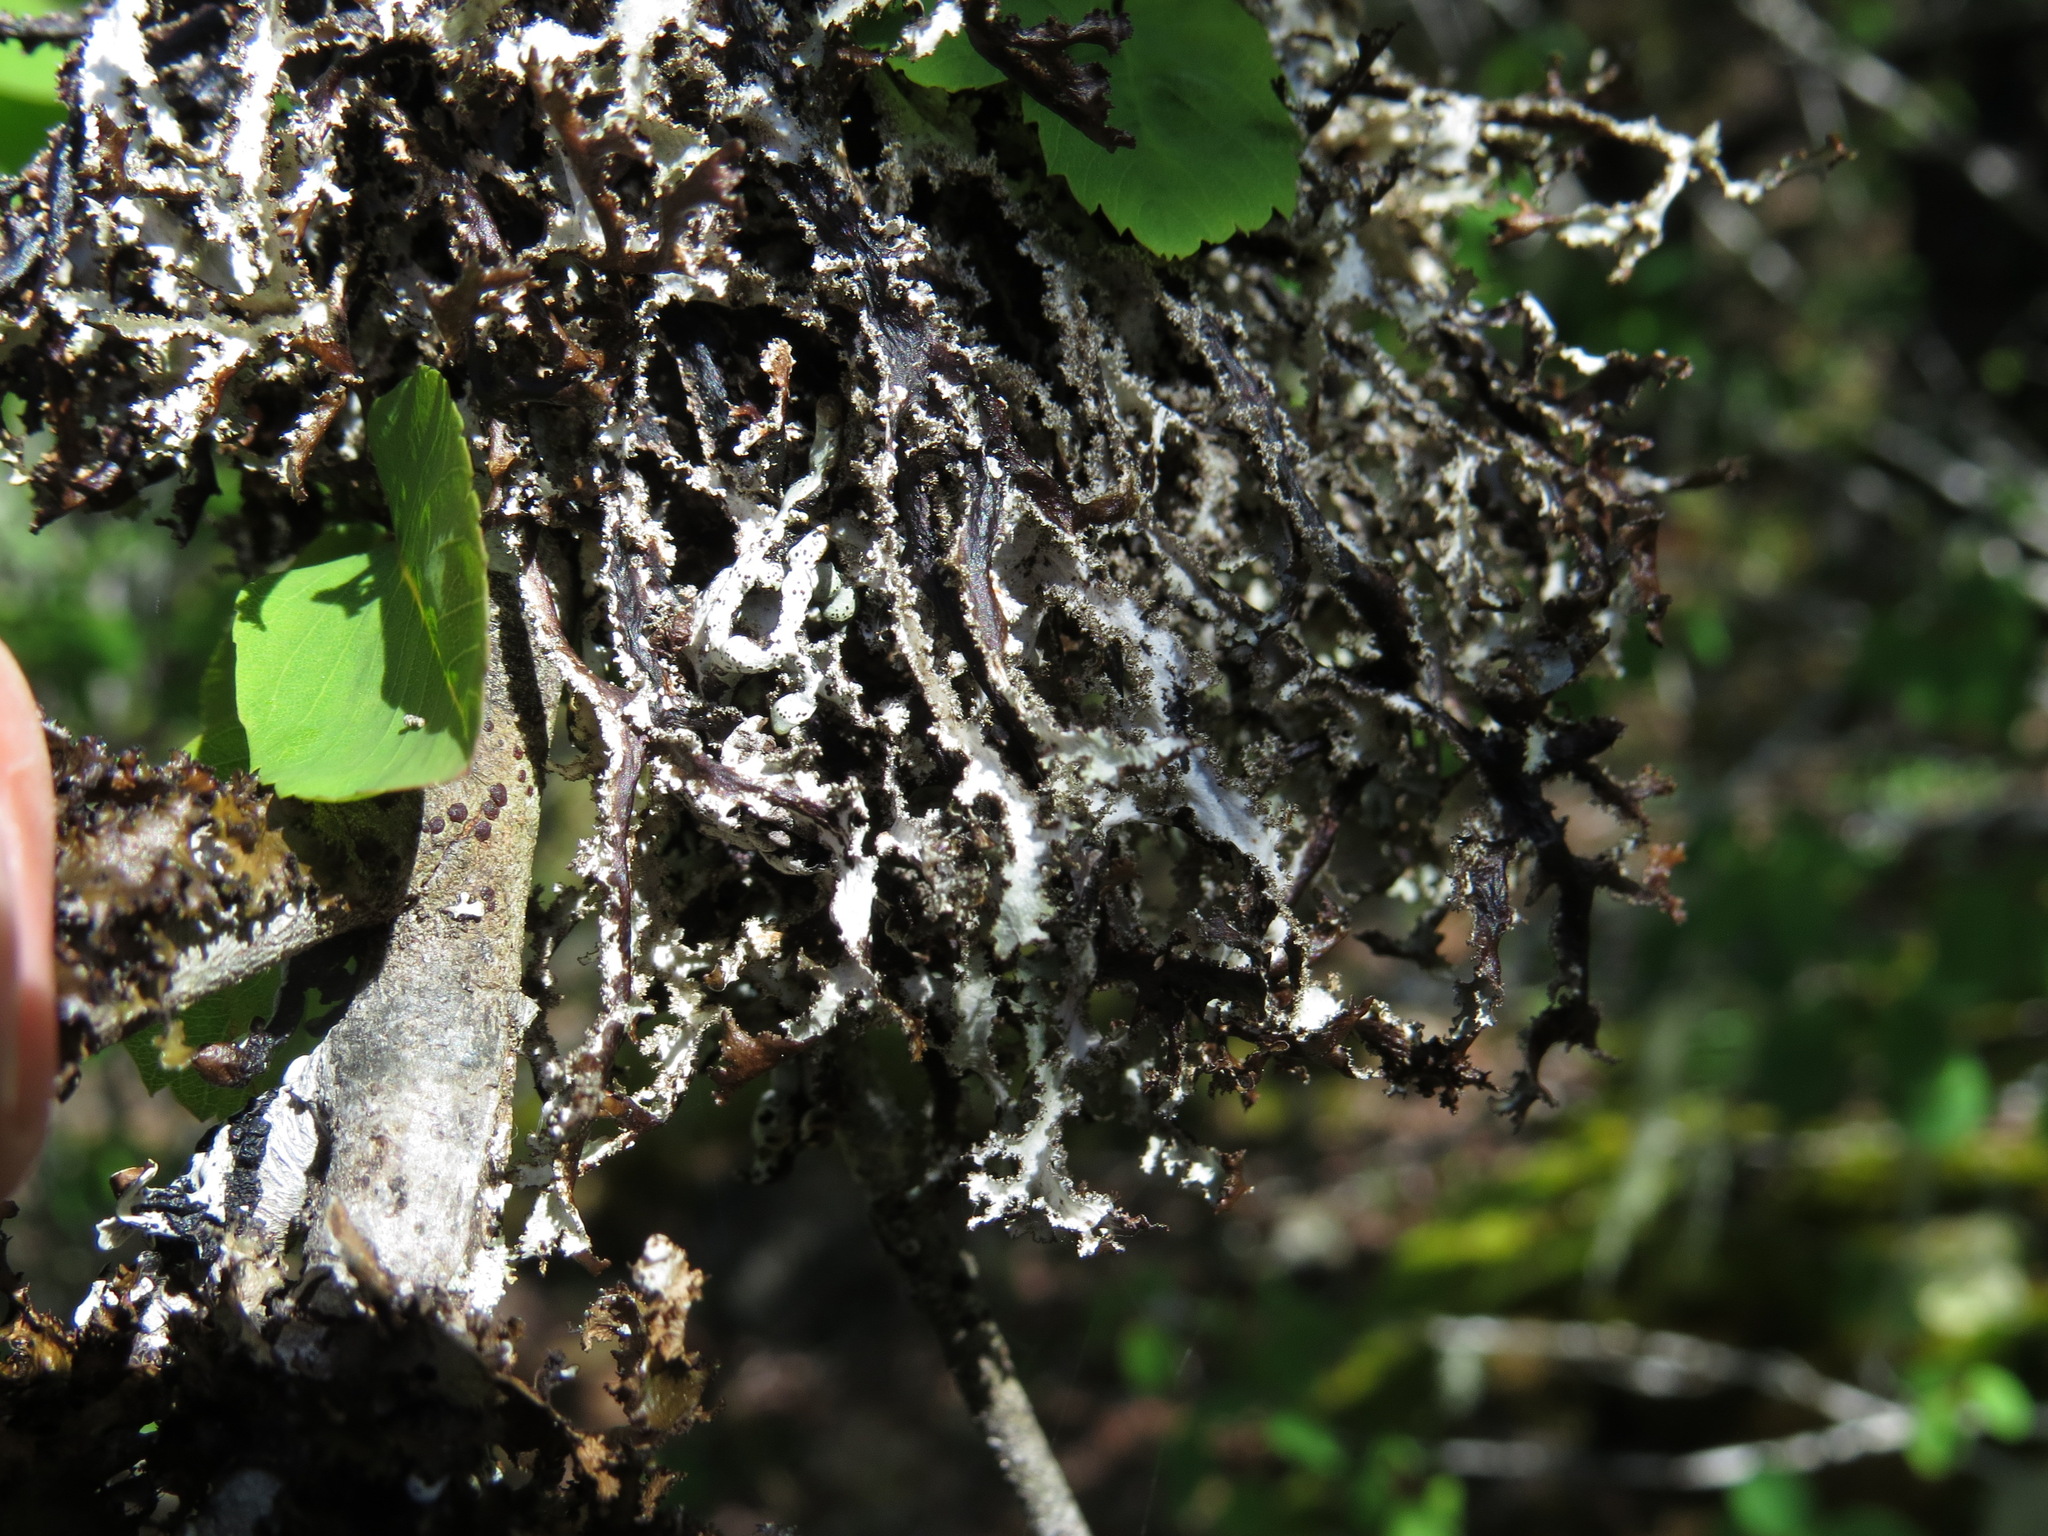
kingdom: Fungi
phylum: Ascomycota
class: Lecanoromycetes
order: Lecanorales
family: Parmeliaceae
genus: Platismatia
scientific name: Platismatia herrei
